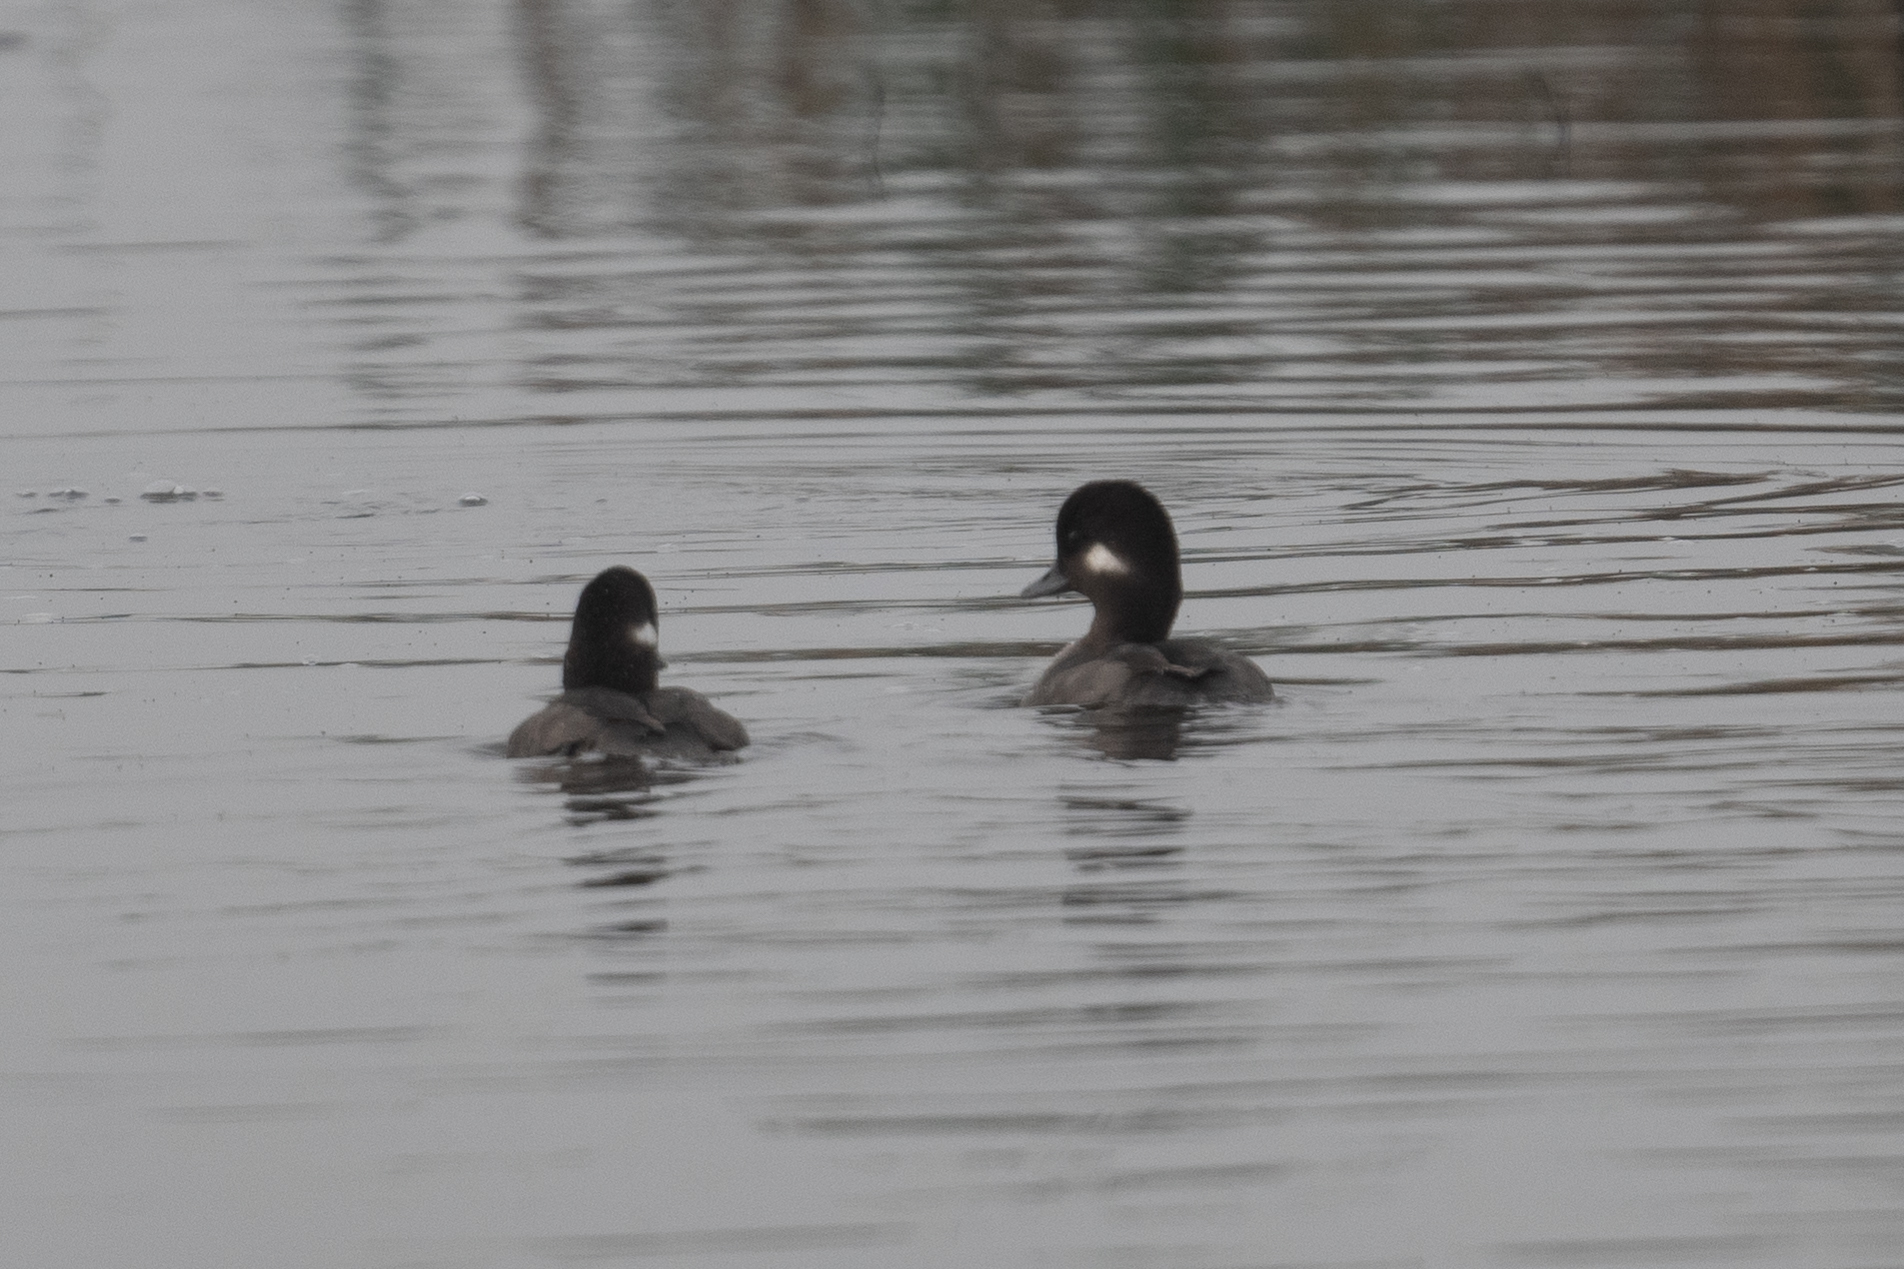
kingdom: Animalia
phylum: Chordata
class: Aves
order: Anseriformes
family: Anatidae
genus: Bucephala
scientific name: Bucephala albeola
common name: Bufflehead
